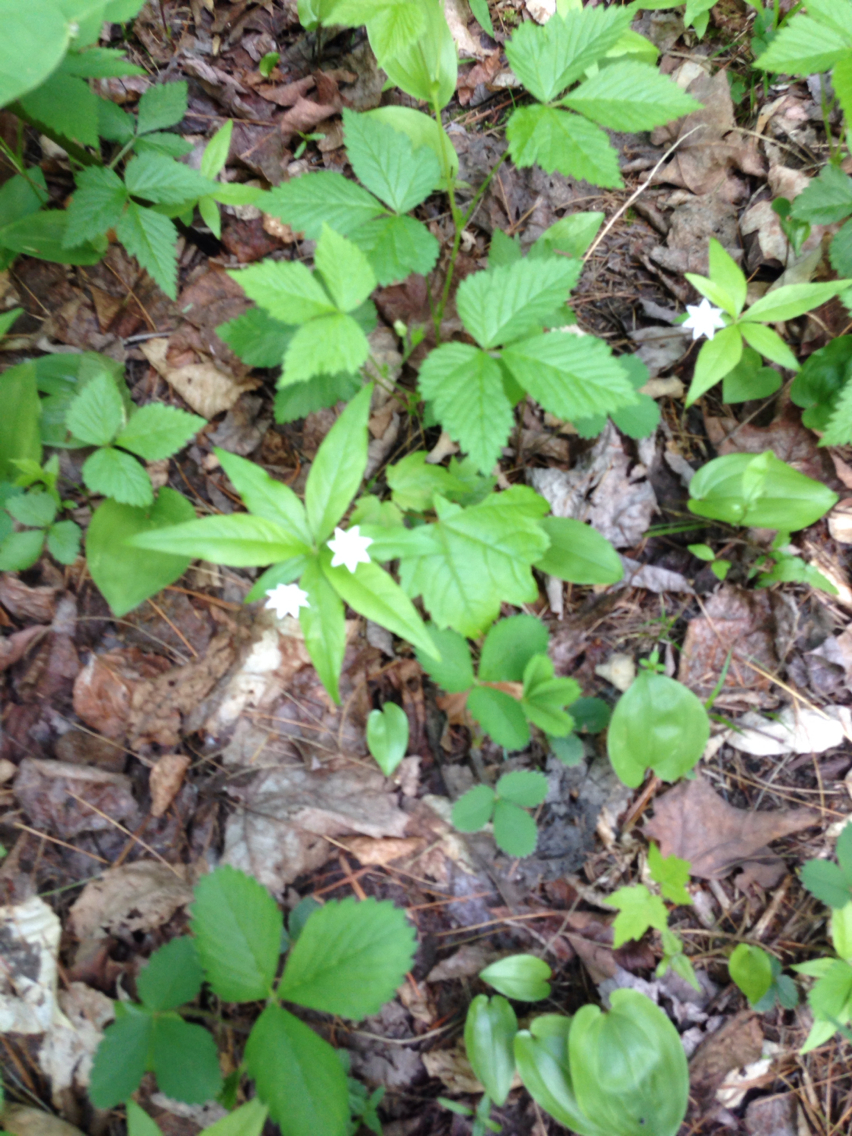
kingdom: Plantae
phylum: Tracheophyta
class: Magnoliopsida
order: Ericales
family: Primulaceae
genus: Lysimachia
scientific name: Lysimachia borealis
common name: American starflower
